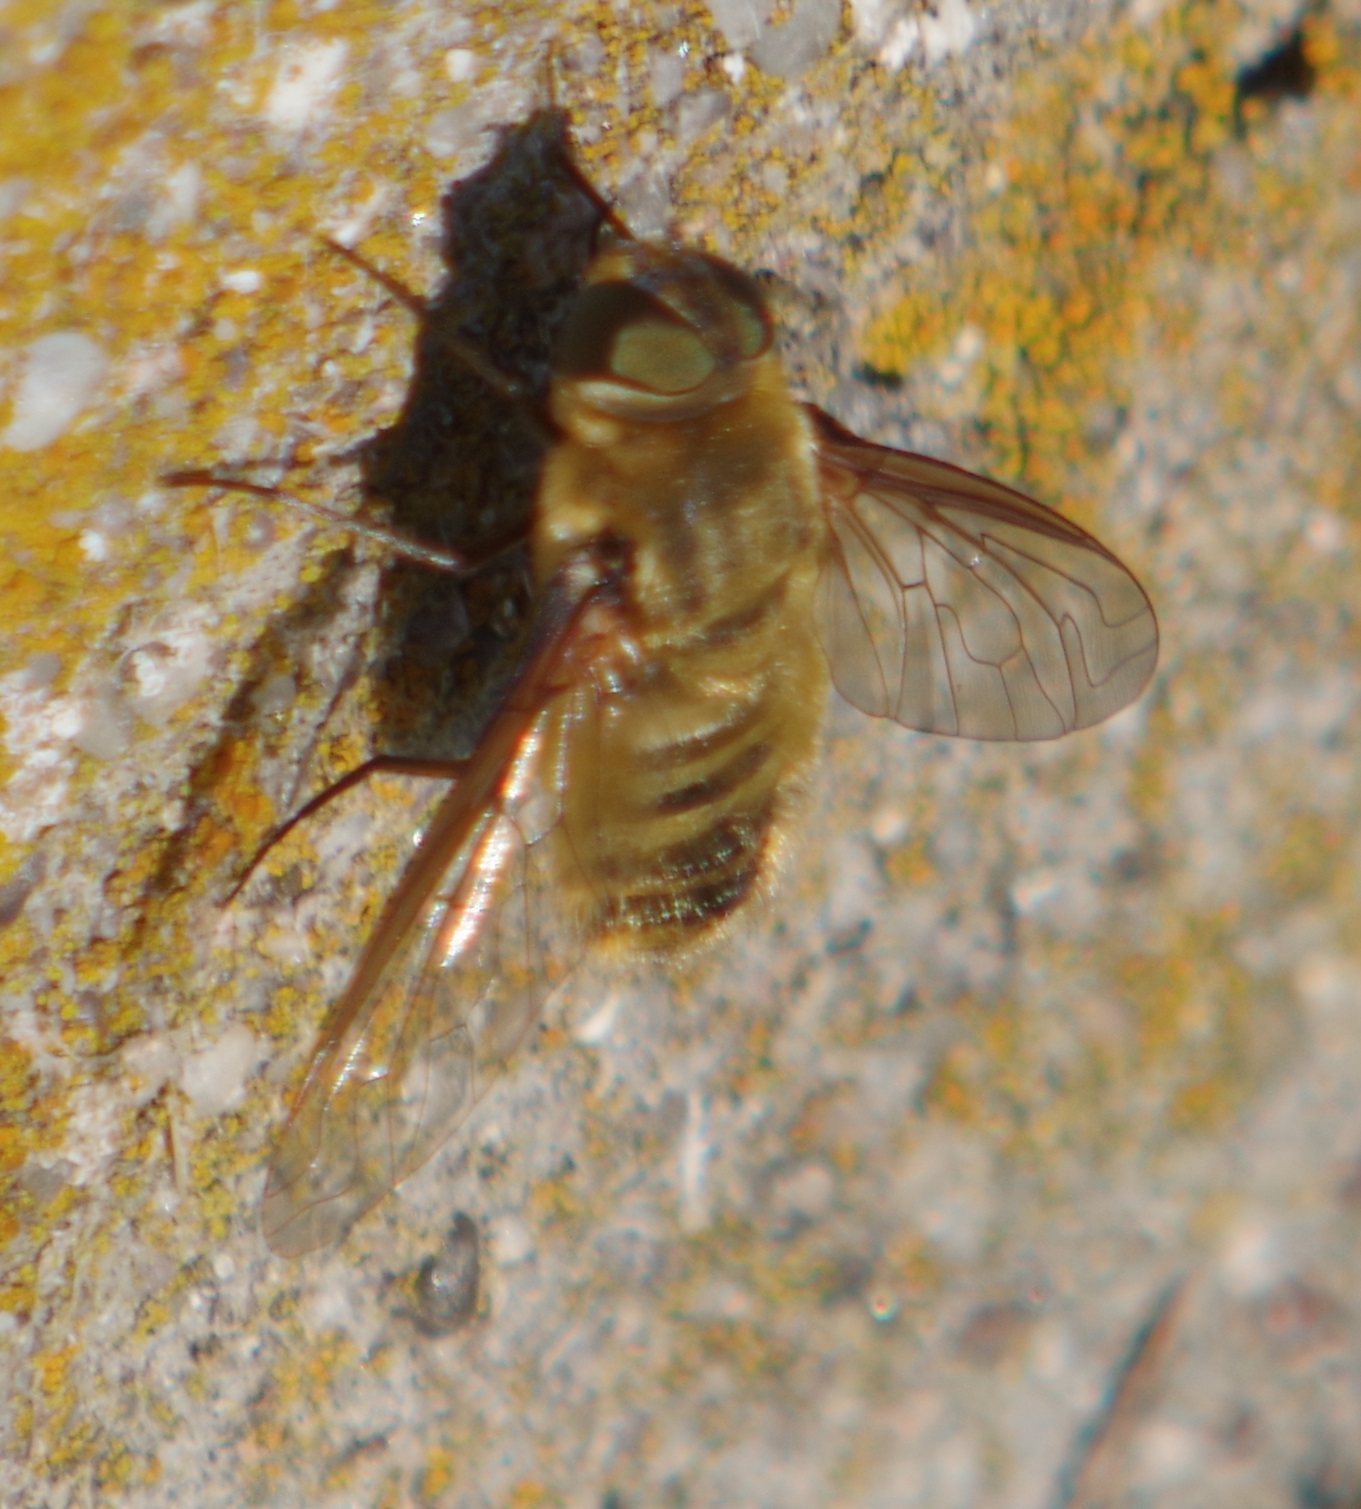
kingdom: Animalia
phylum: Arthropoda
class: Insecta
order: Diptera
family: Bombyliidae
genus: Villa
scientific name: Villa hottentotta
